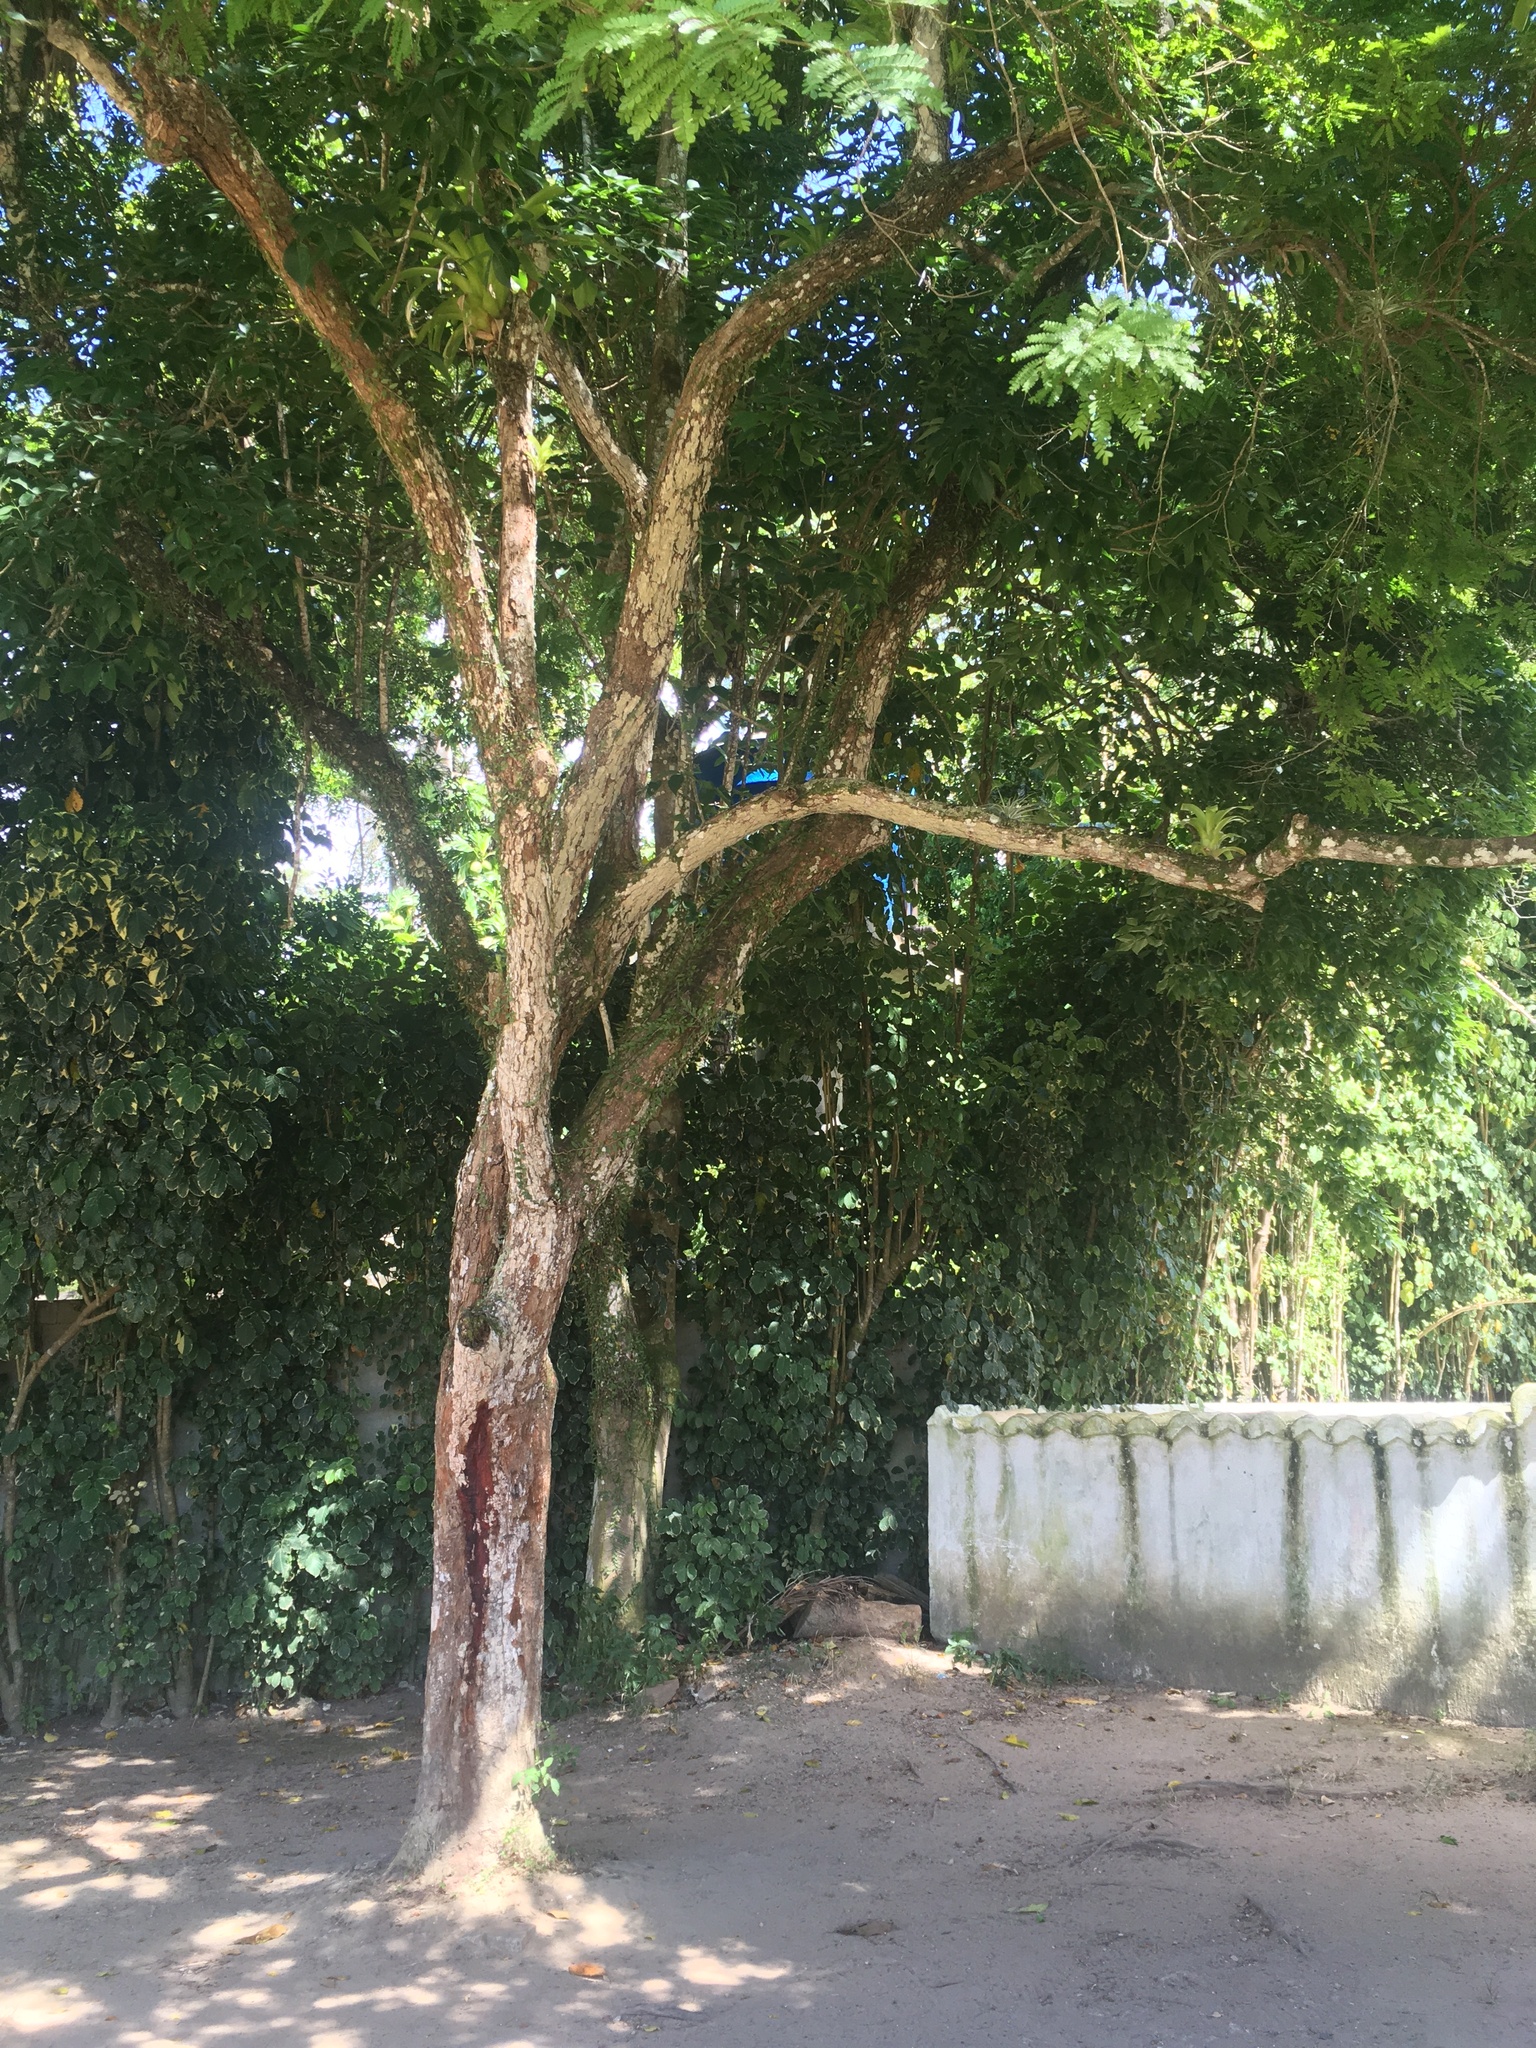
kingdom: Plantae
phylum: Tracheophyta
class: Magnoliopsida
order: Fabales
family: Fabaceae
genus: Paubrasilia
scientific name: Paubrasilia echinata
